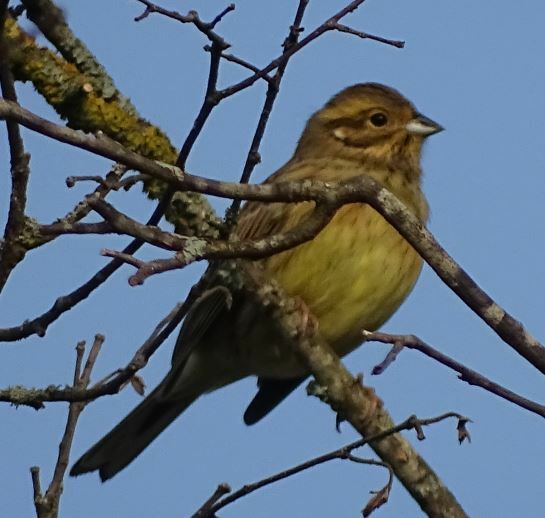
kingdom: Animalia
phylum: Chordata
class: Aves
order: Passeriformes
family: Emberizidae
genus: Emberiza
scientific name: Emberiza cirlus
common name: Cirl bunting
